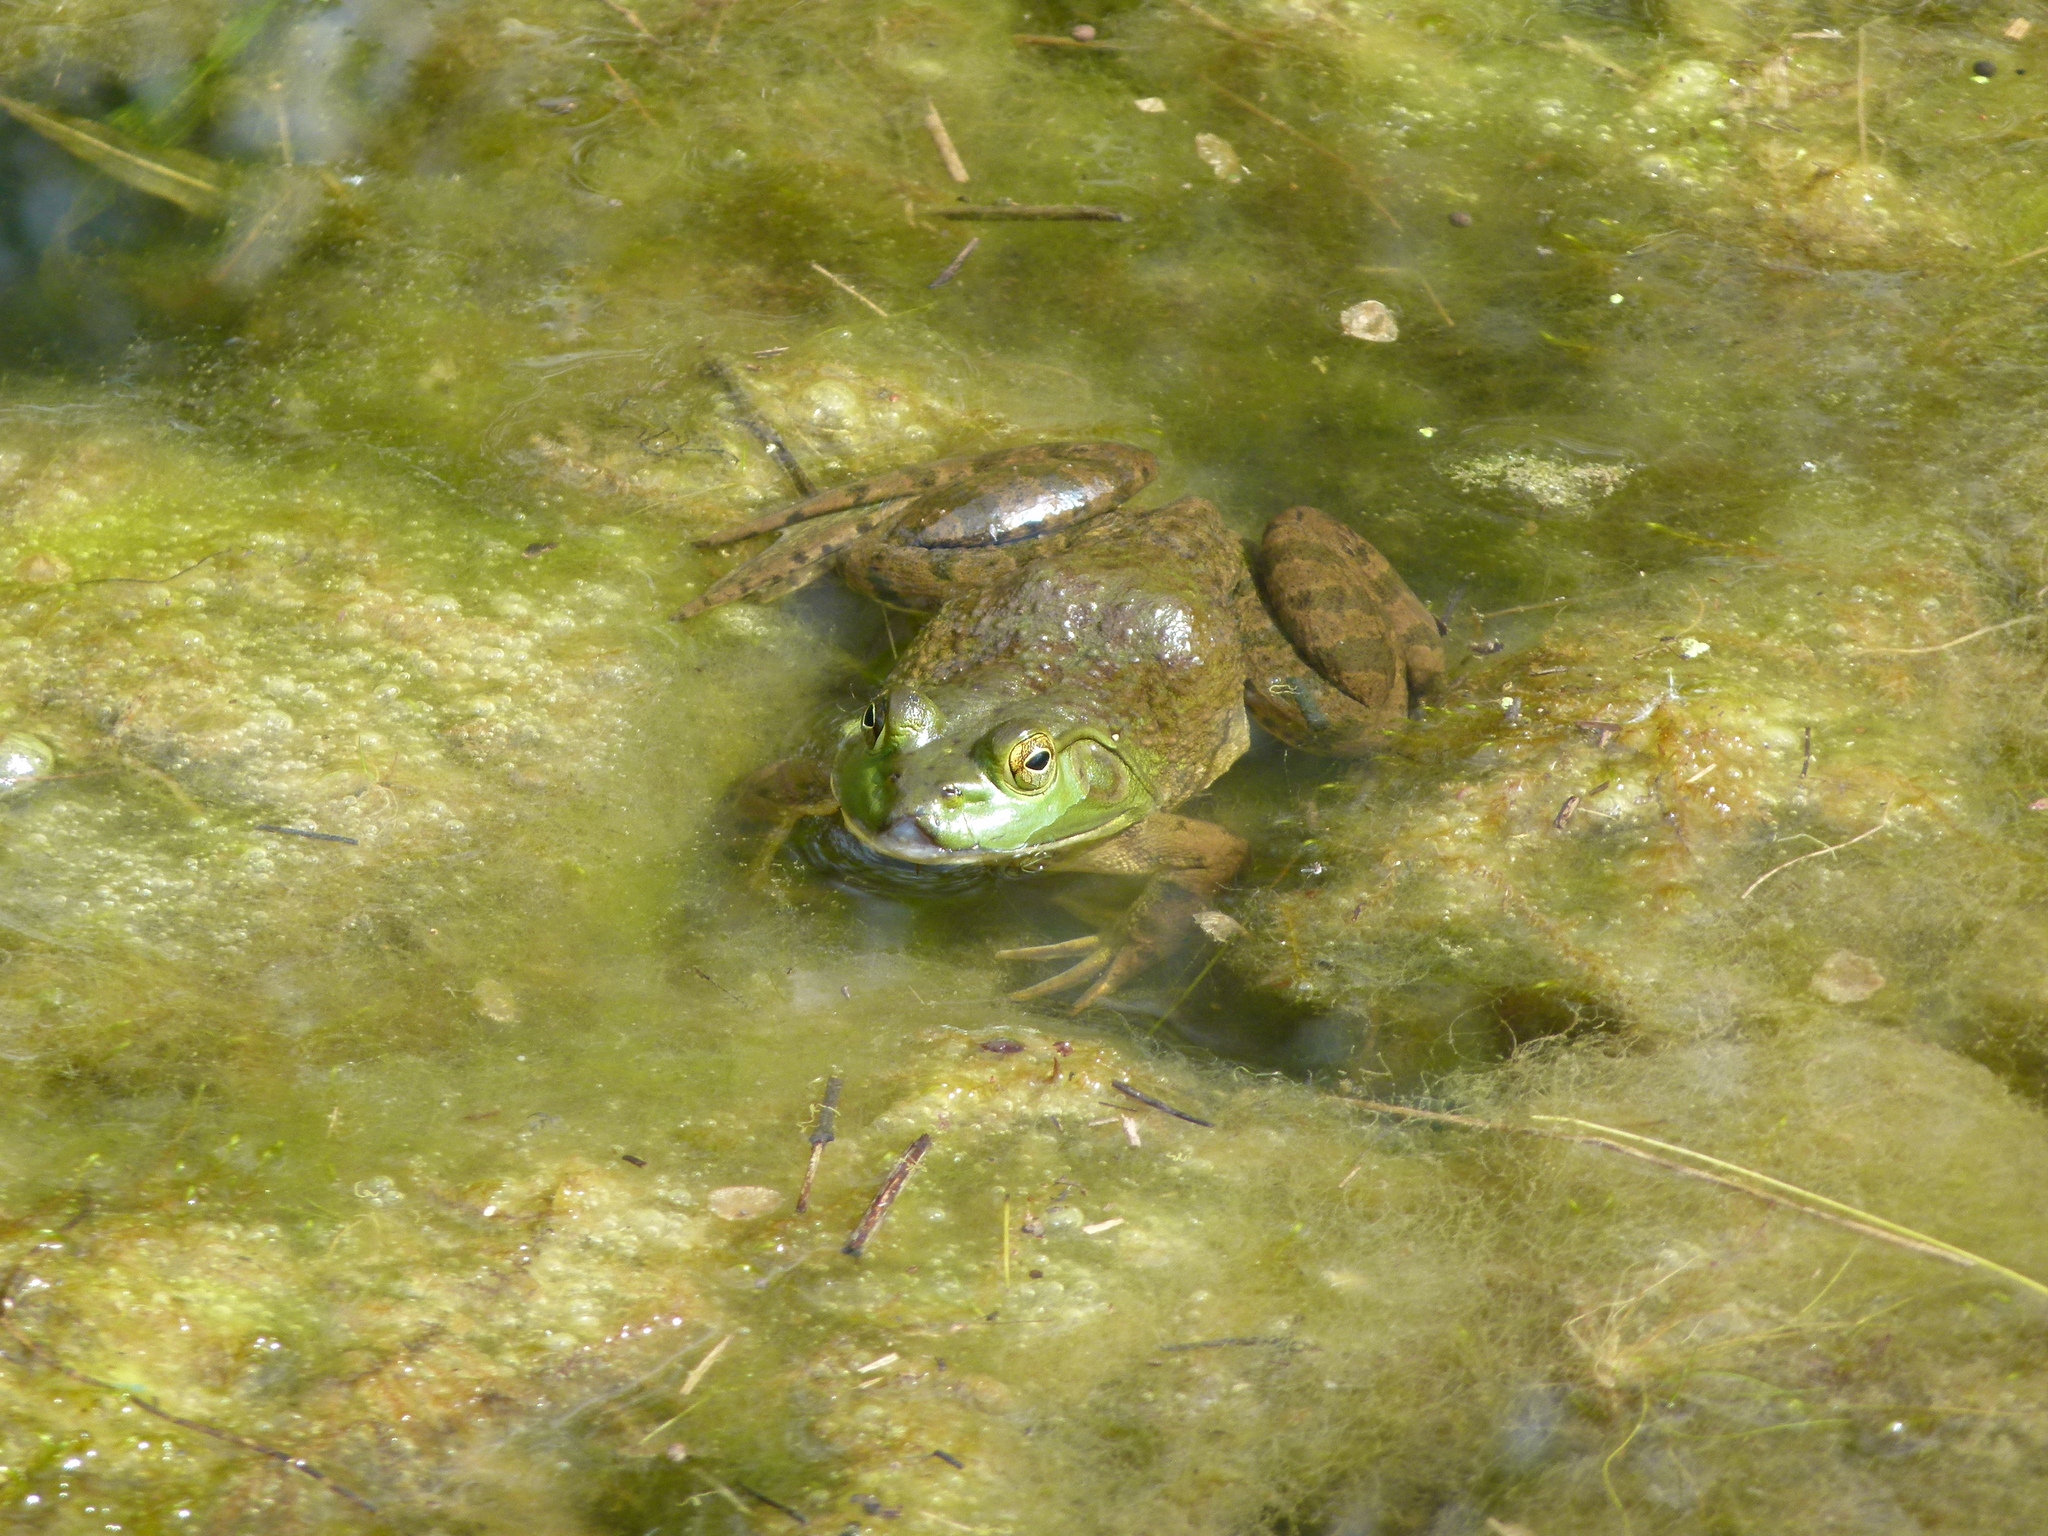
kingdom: Animalia
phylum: Chordata
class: Amphibia
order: Anura
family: Ranidae
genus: Lithobates
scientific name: Lithobates catesbeianus
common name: American bullfrog
